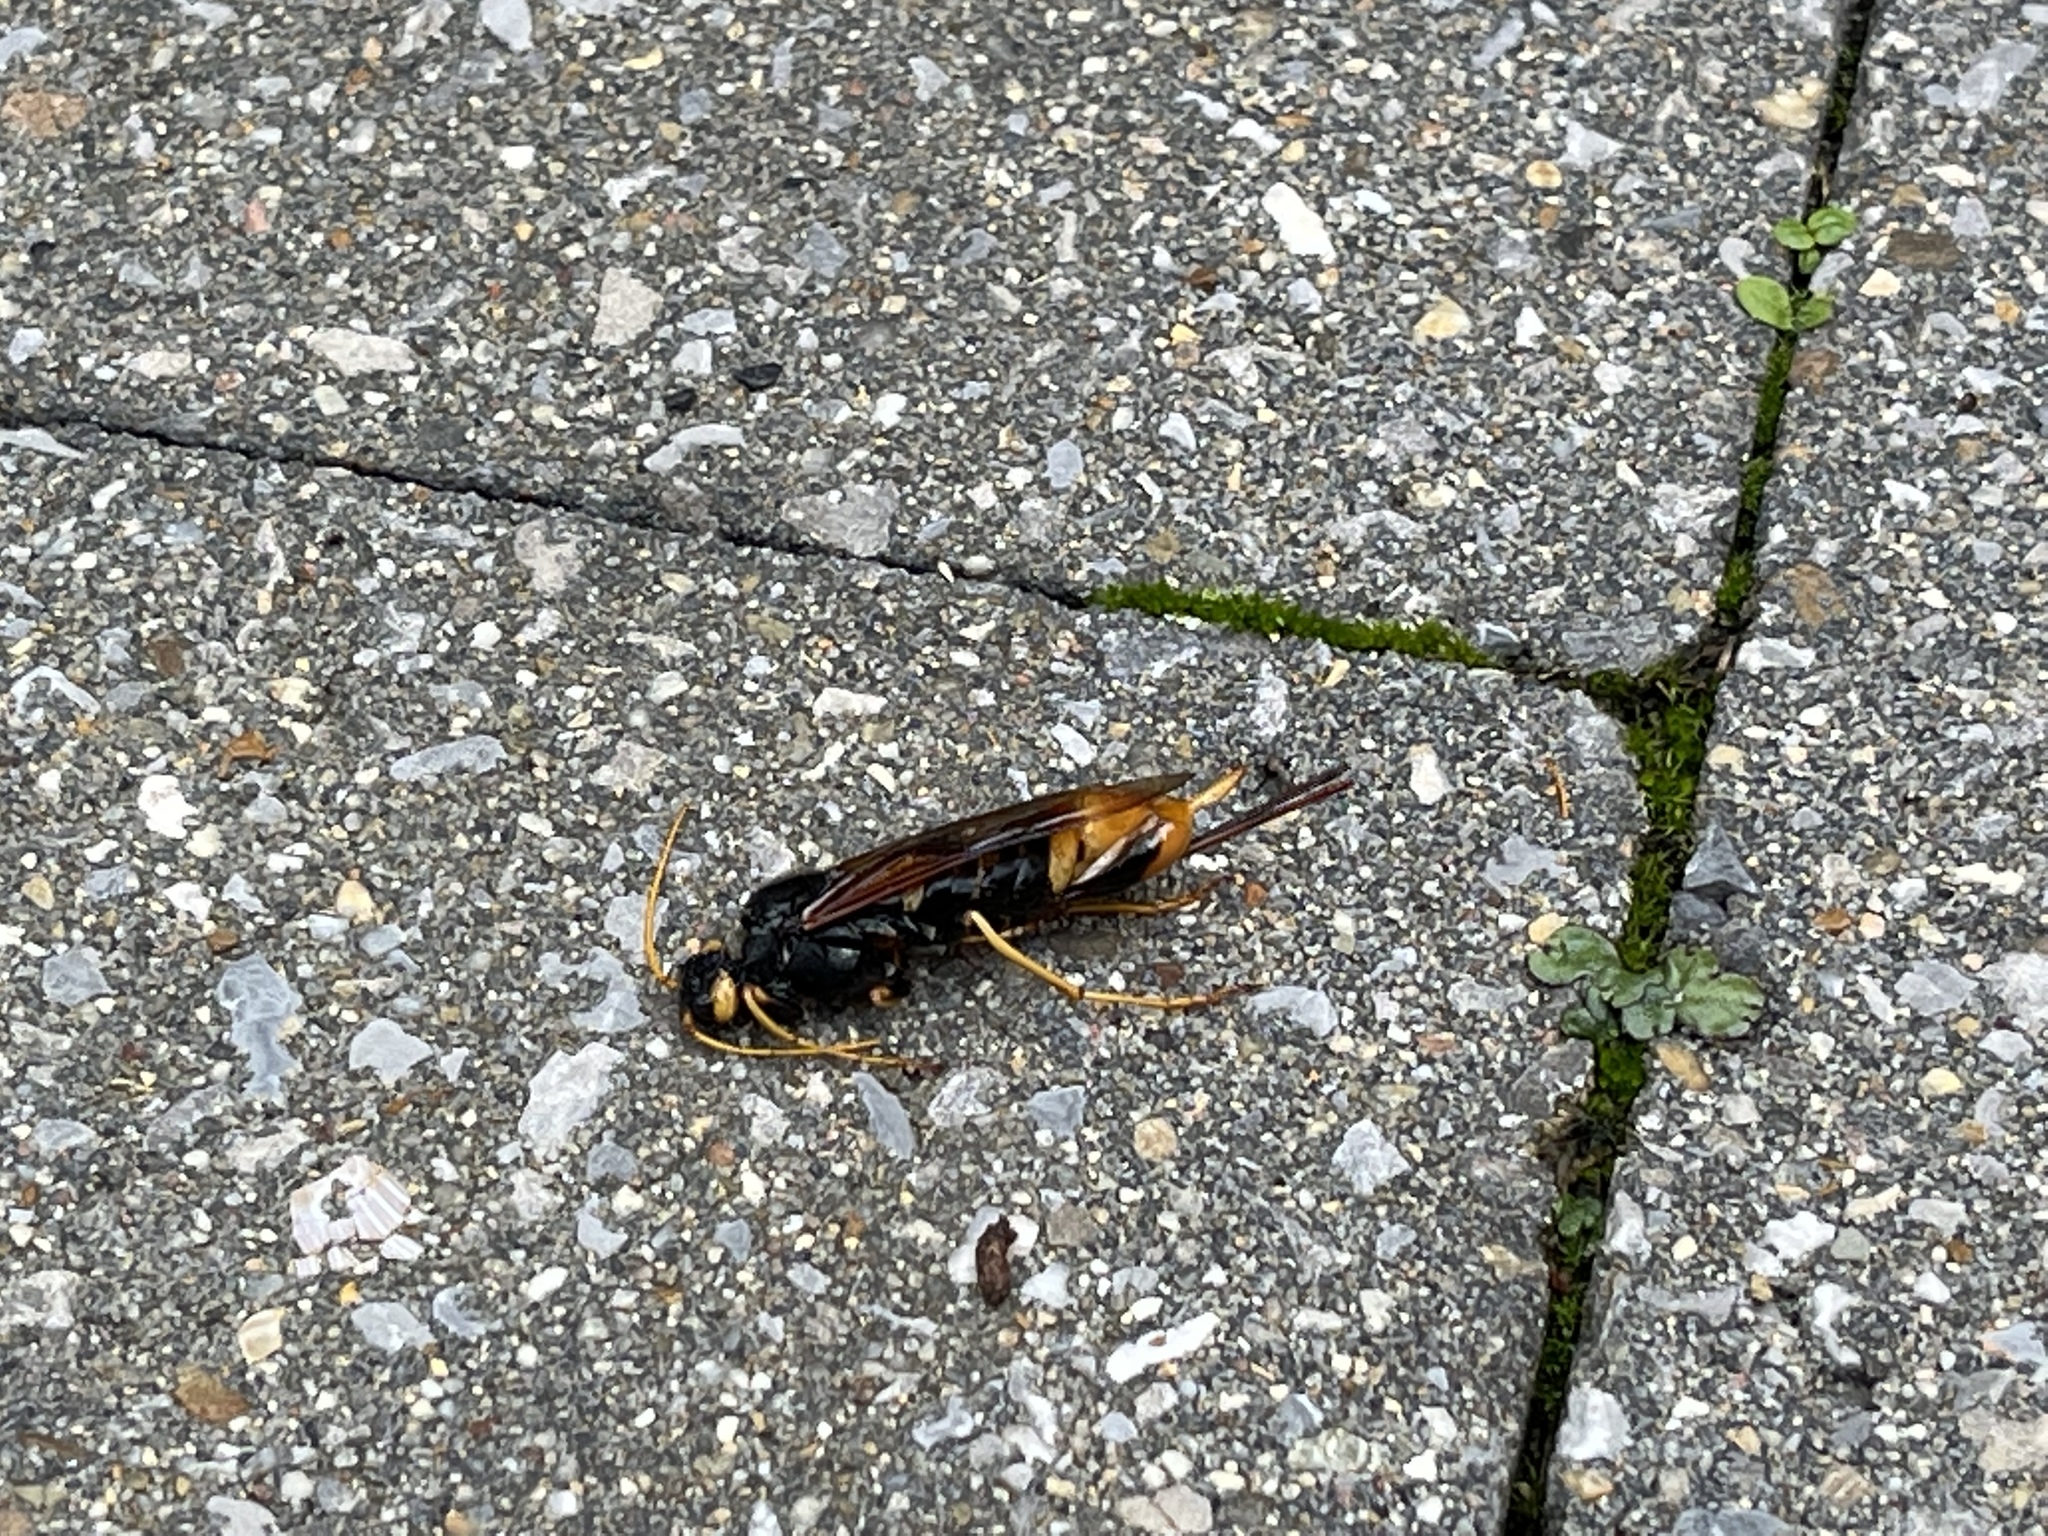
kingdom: Animalia
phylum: Arthropoda
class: Insecta
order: Hymenoptera
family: Siricidae
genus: Urocerus
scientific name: Urocerus gigas
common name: Giant woodwasp
